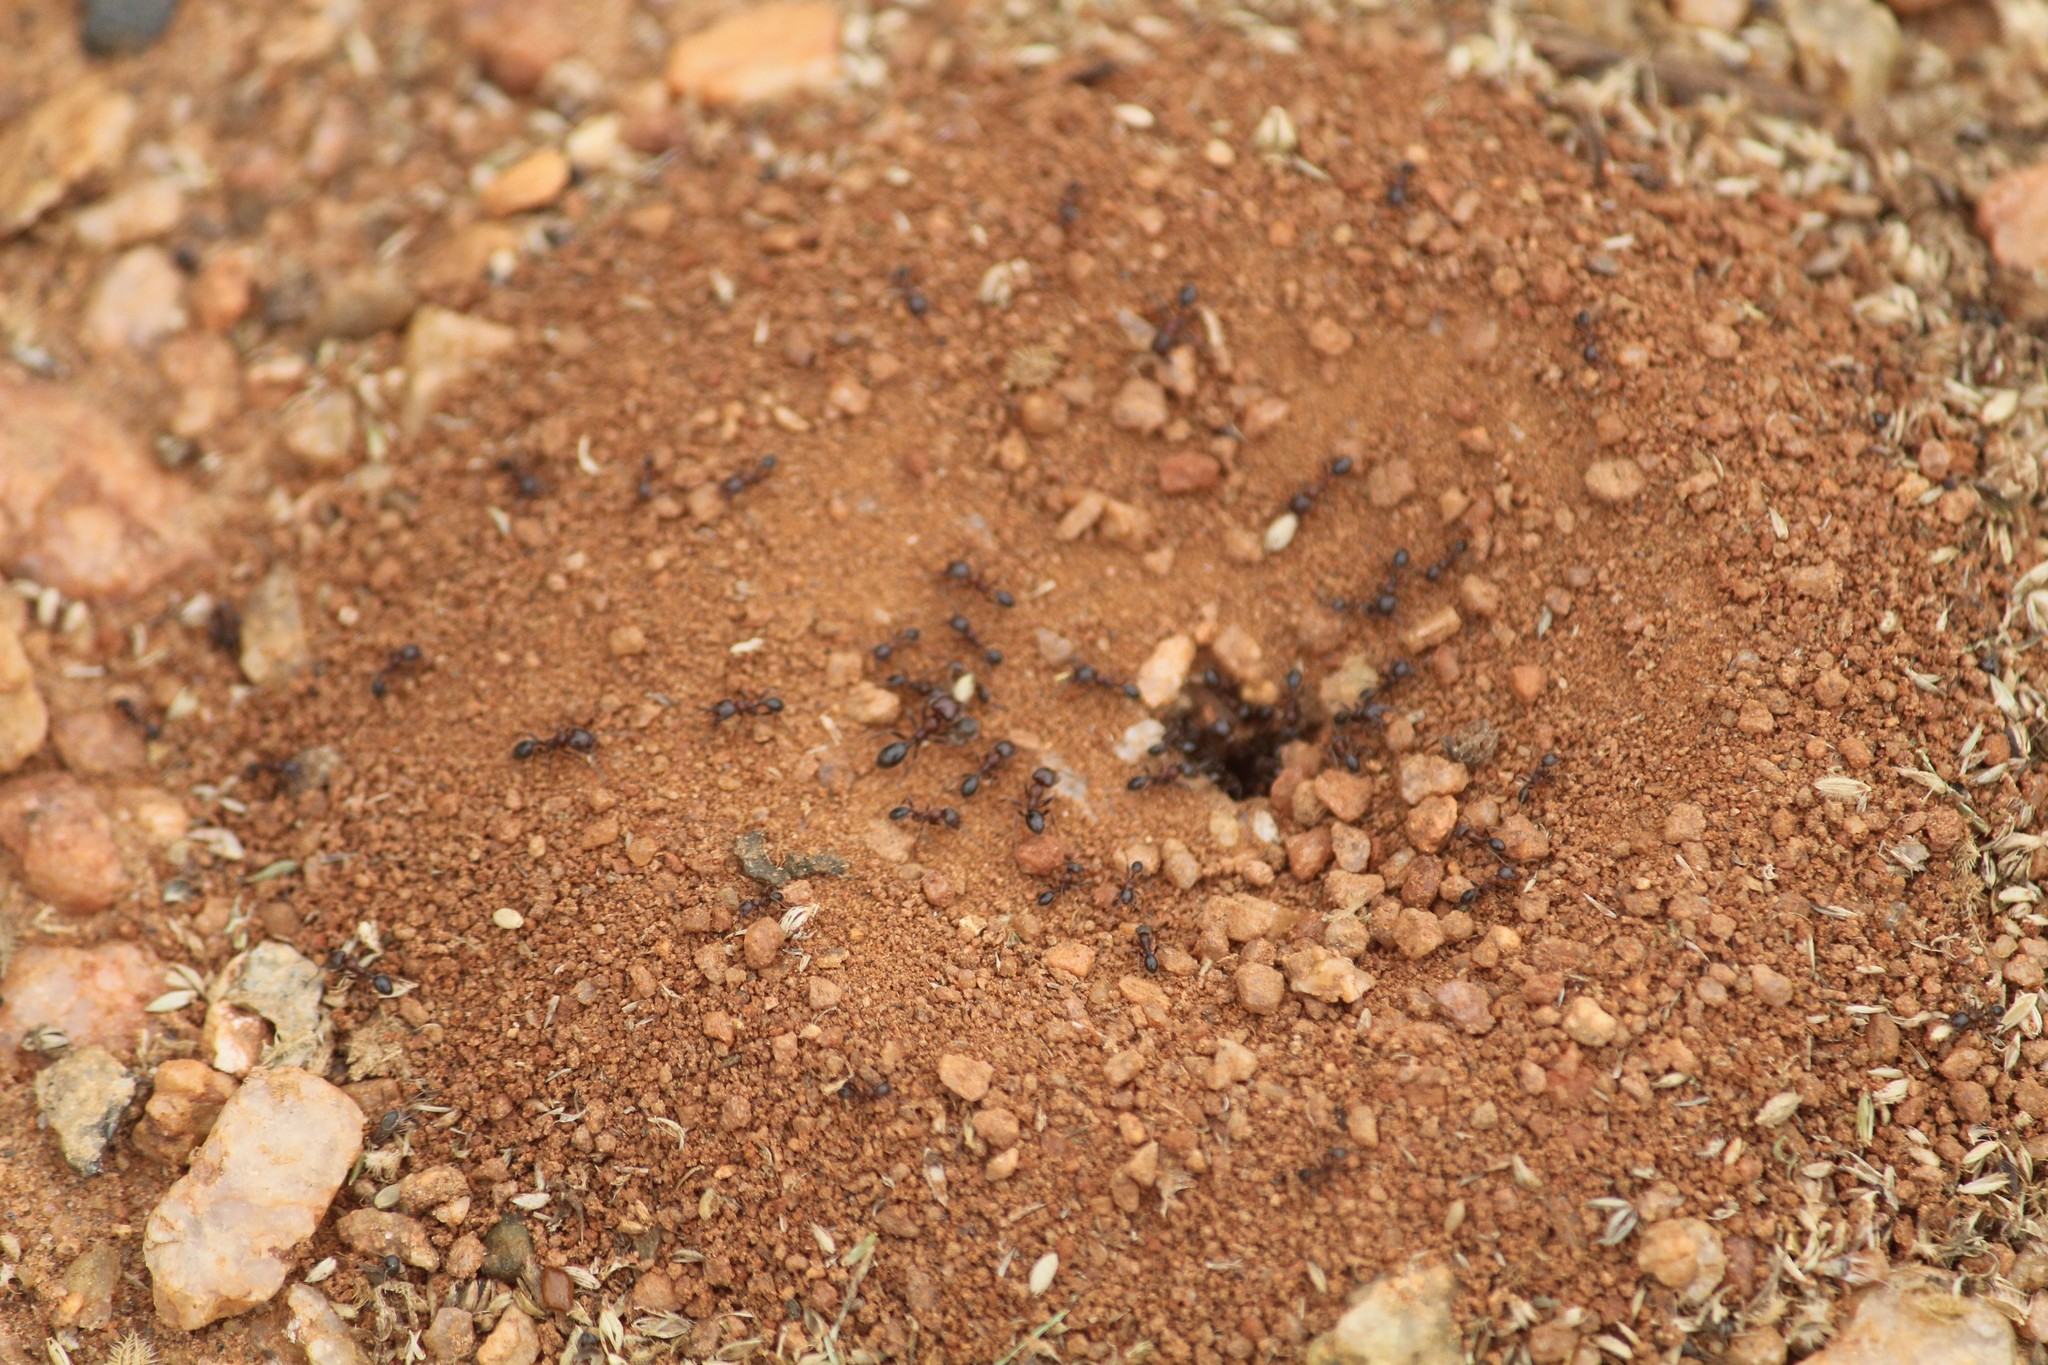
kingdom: Animalia
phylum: Arthropoda
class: Insecta
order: Hymenoptera
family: Formicidae
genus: Trichomyrmex
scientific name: Trichomyrmex
